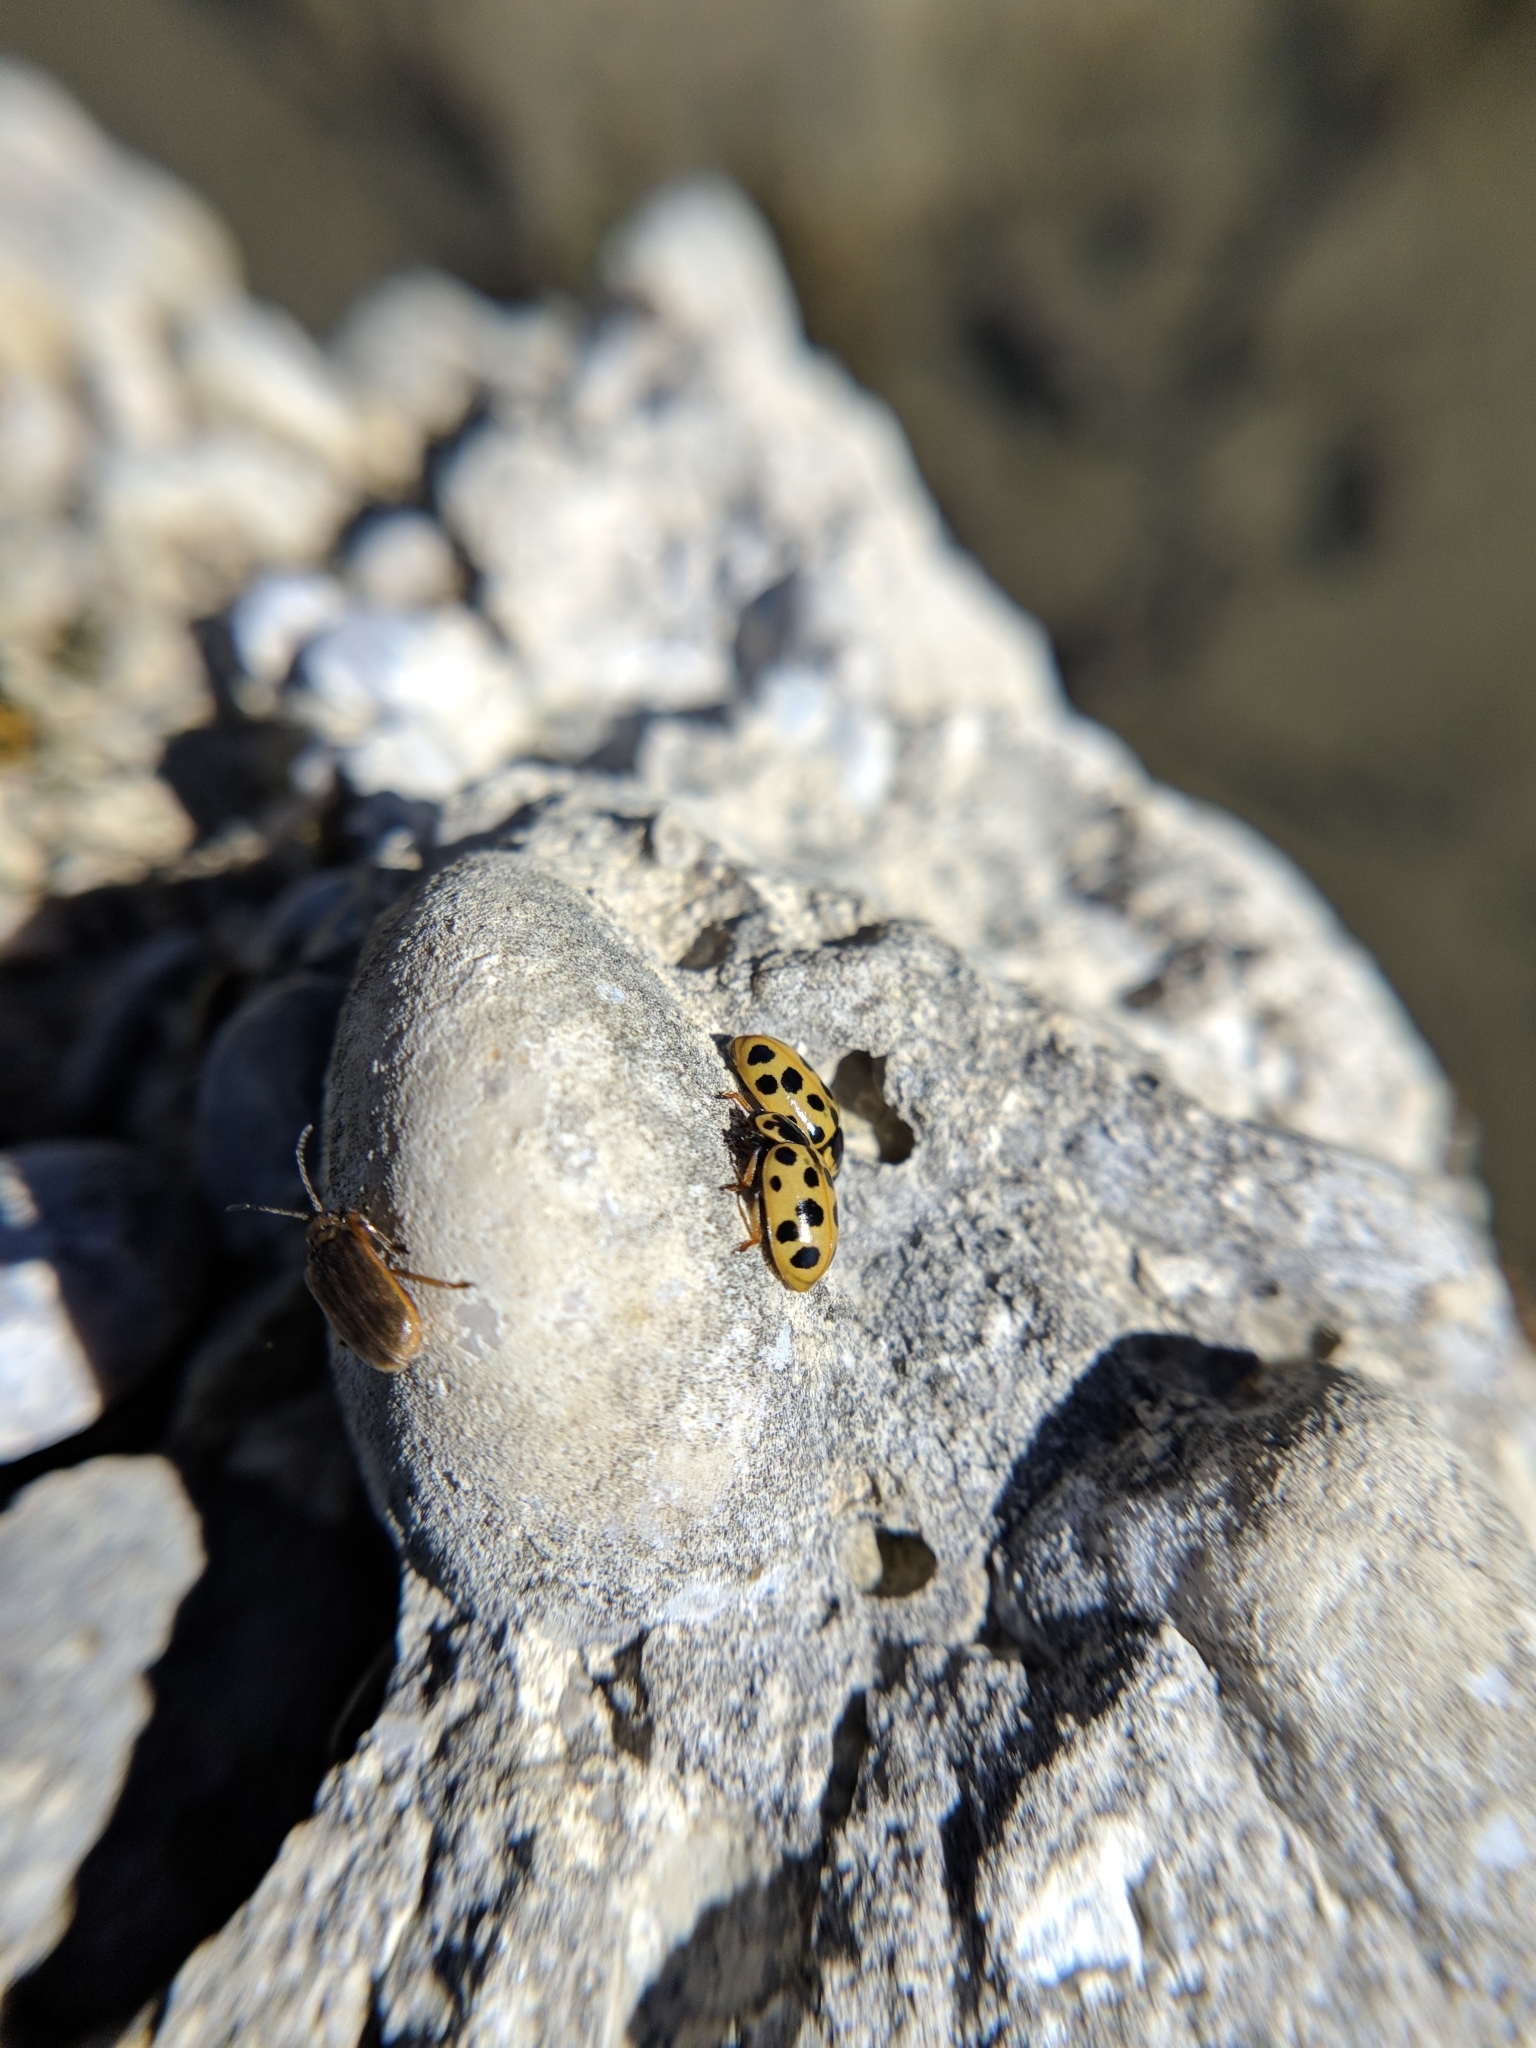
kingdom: Animalia
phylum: Arthropoda
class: Insecta
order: Coleoptera
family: Coccinellidae
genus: Hippodamia
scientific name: Hippodamia tredecimpunctata
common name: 13-spot ladybird
